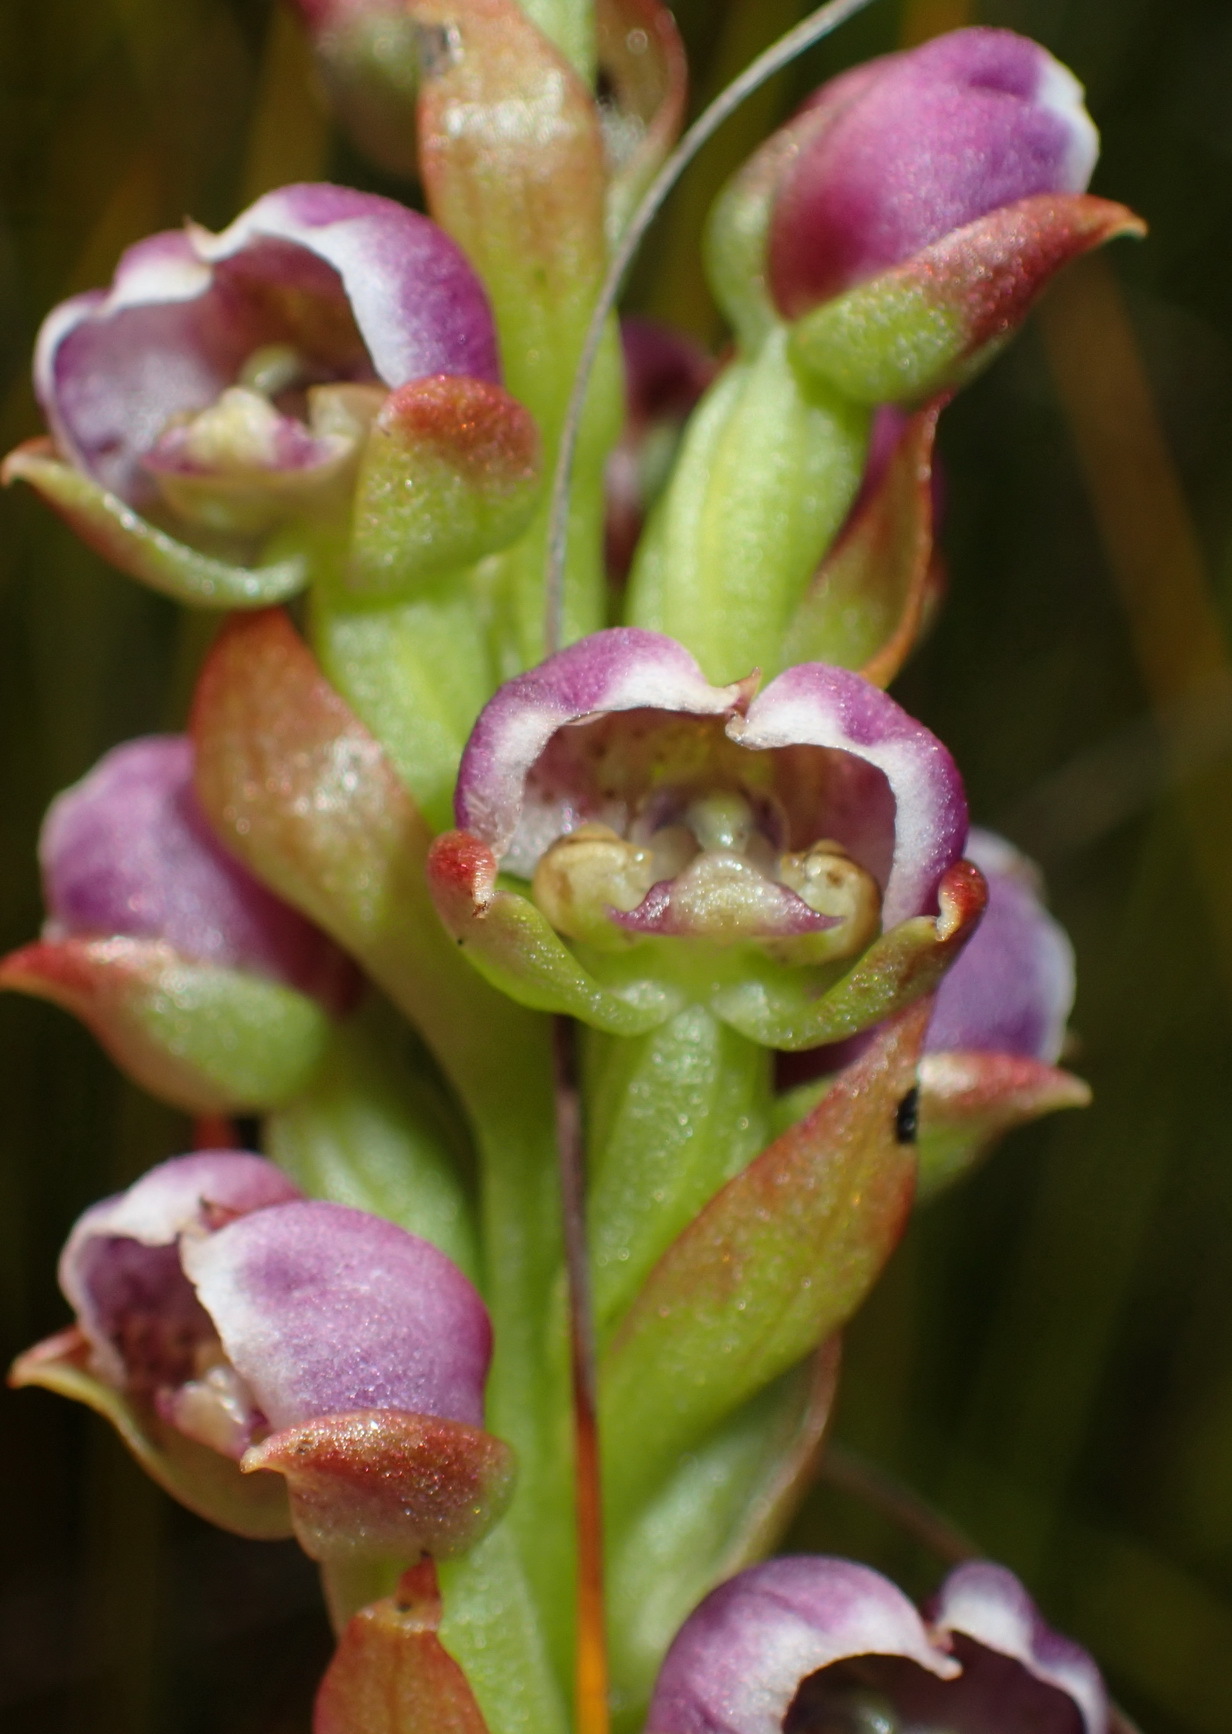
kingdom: Plantae
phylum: Tracheophyta
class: Liliopsida
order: Asparagales
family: Orchidaceae
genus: Evotella
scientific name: Evotella carnosa
